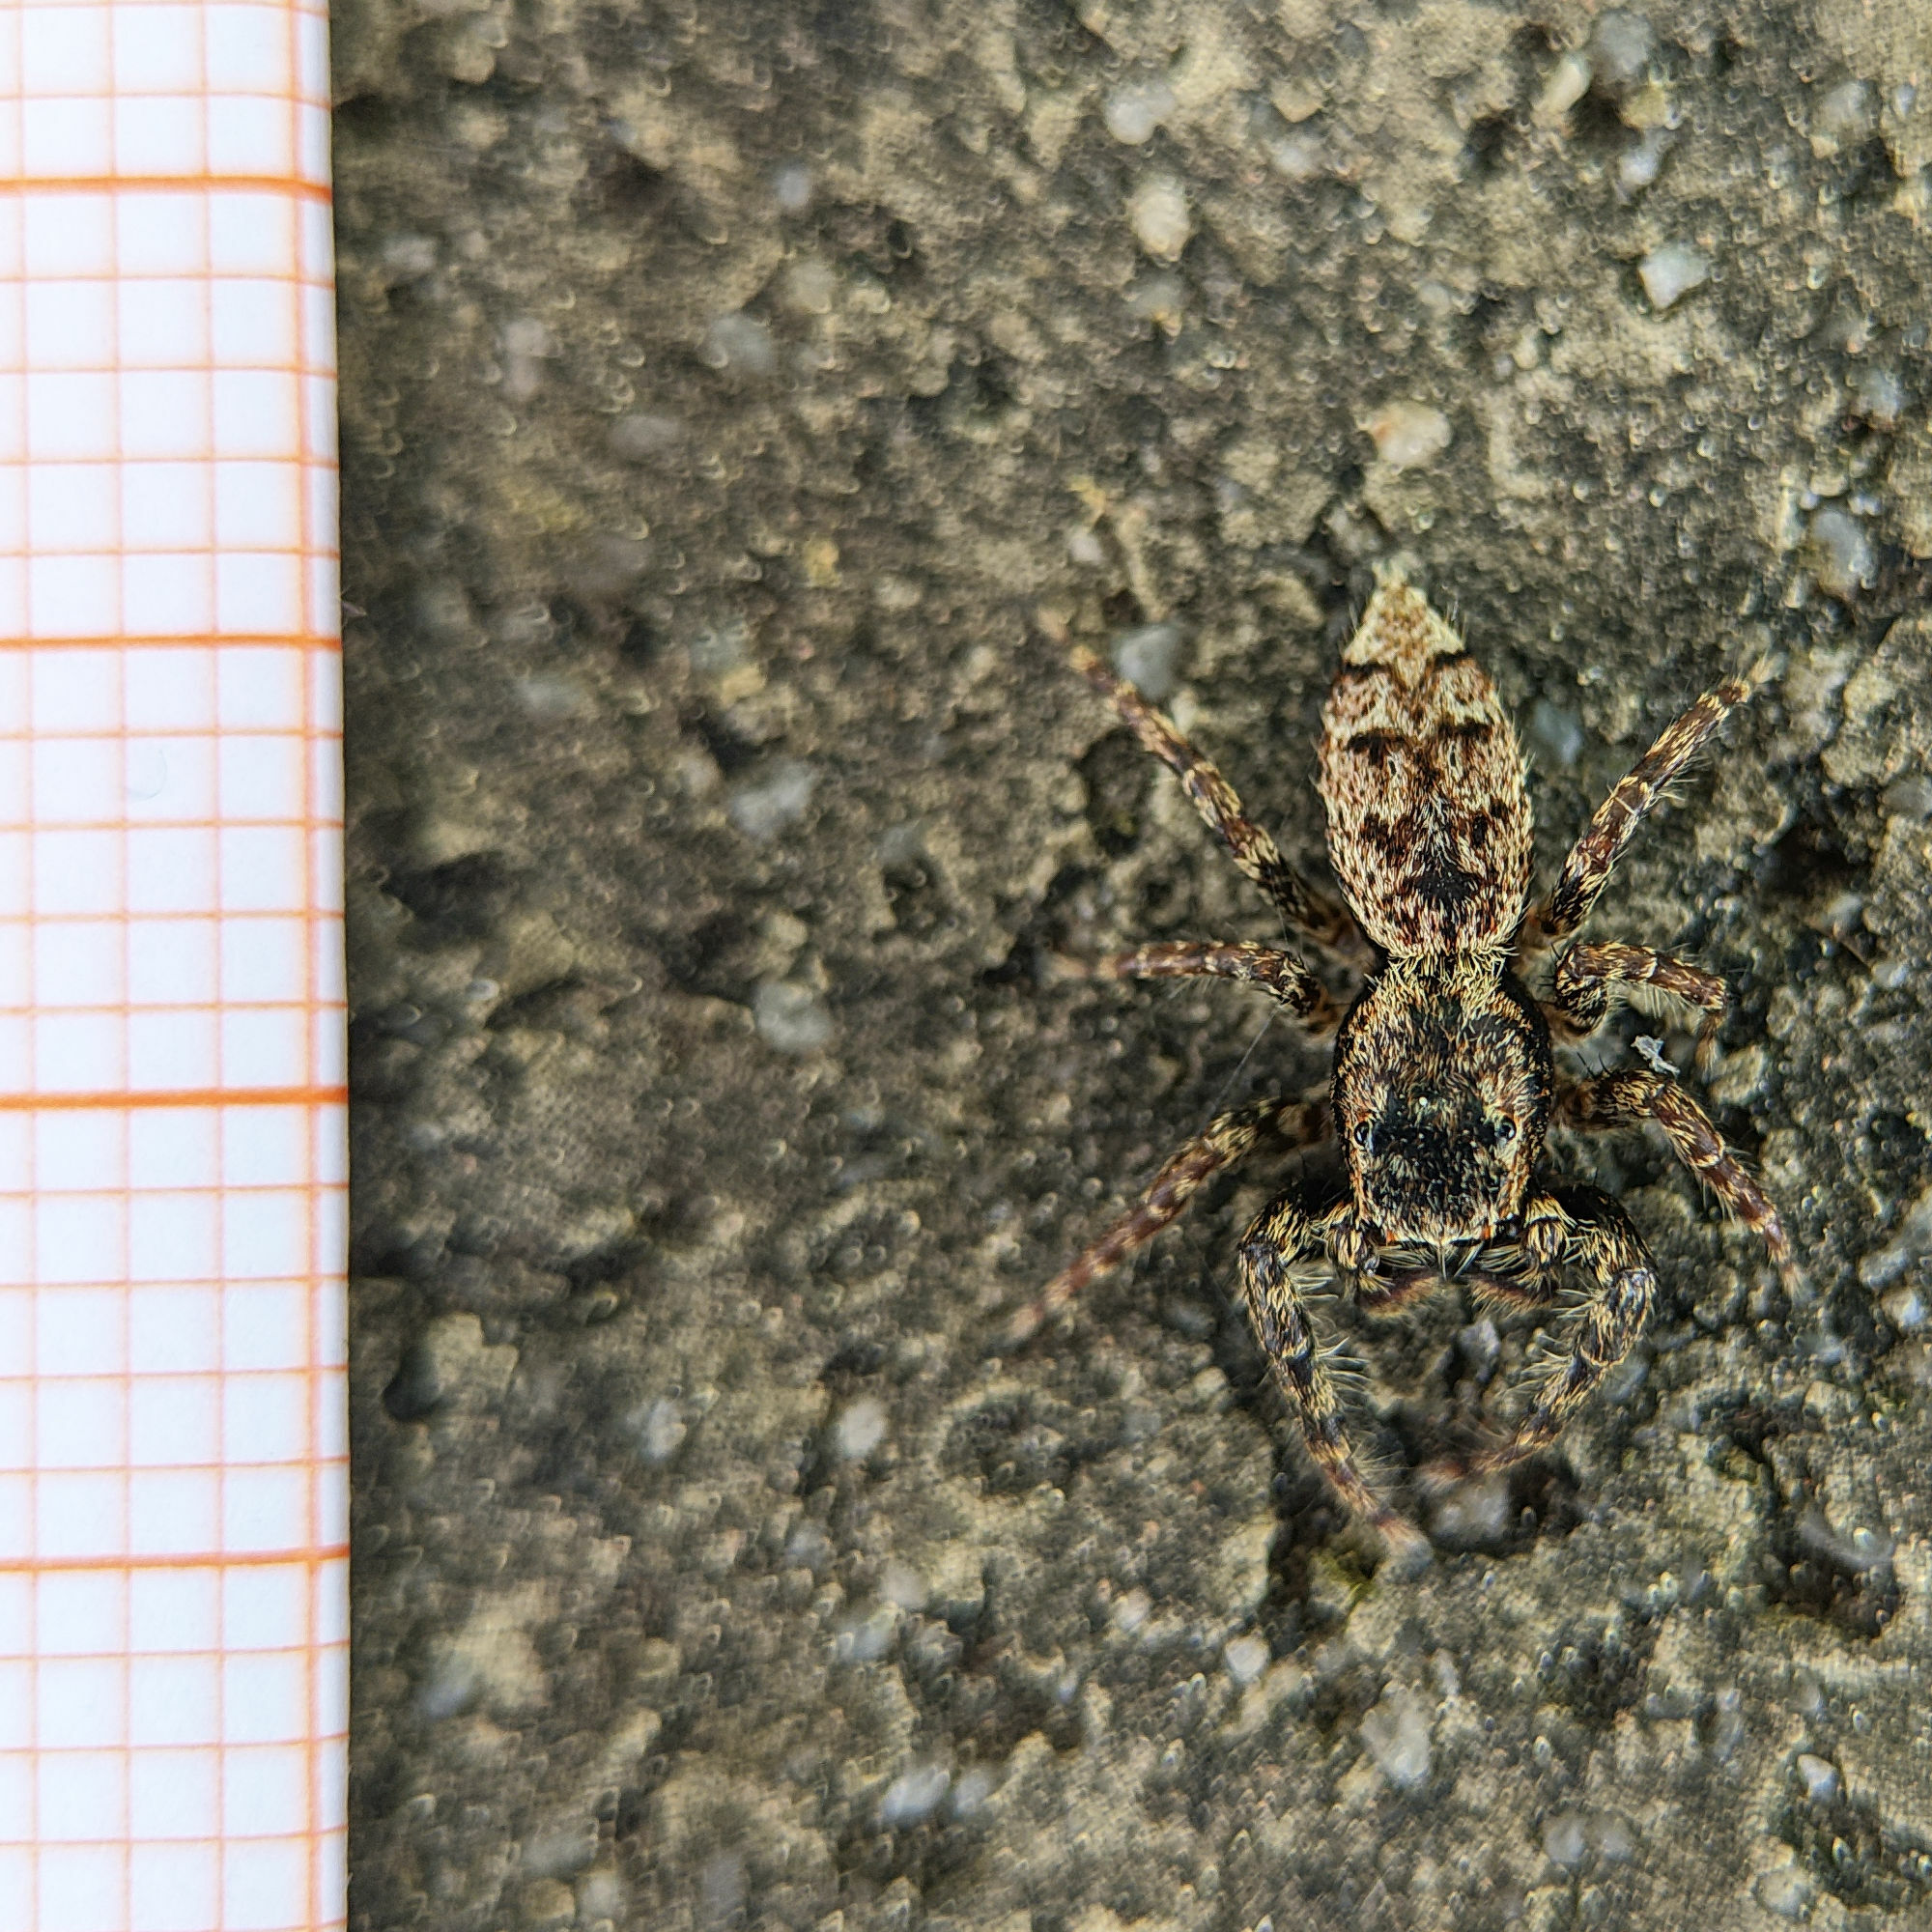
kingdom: Animalia
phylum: Arthropoda
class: Arachnida
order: Araneae
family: Salticidae
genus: Marpissa
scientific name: Marpissa muscosa
